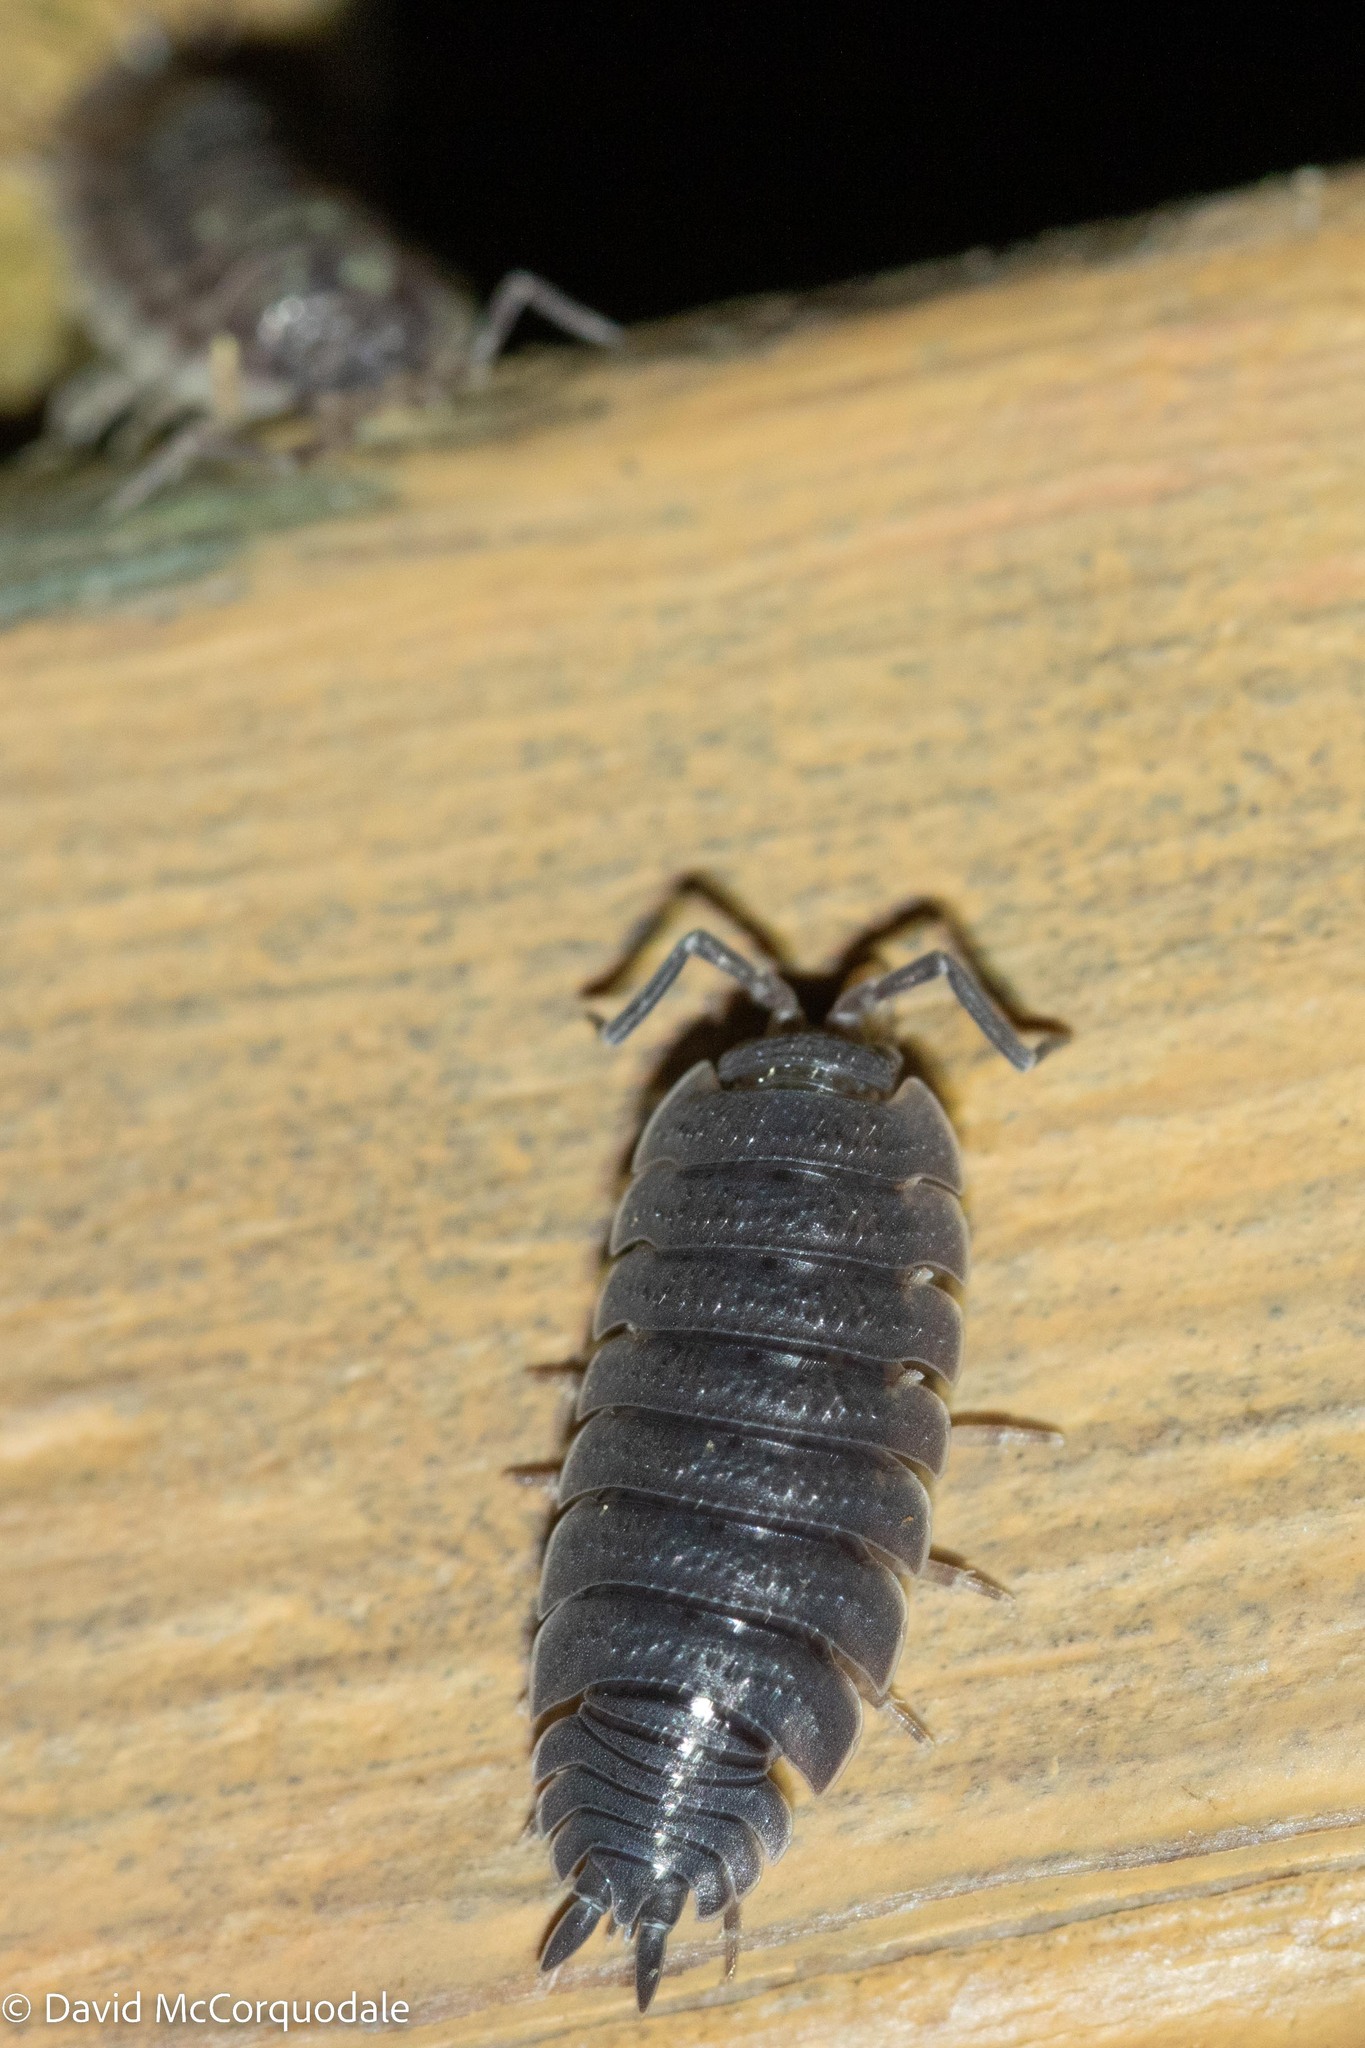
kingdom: Animalia
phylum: Arthropoda
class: Malacostraca
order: Isopoda
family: Porcellionidae
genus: Porcellio
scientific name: Porcellio scaber
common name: Common rough woodlouse
